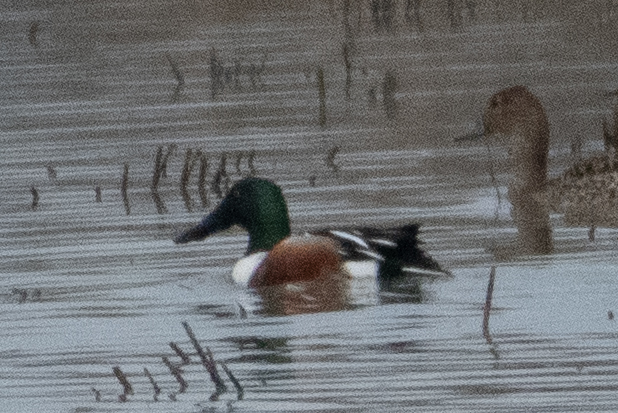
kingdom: Animalia
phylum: Chordata
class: Aves
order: Anseriformes
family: Anatidae
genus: Spatula
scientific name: Spatula clypeata
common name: Northern shoveler
